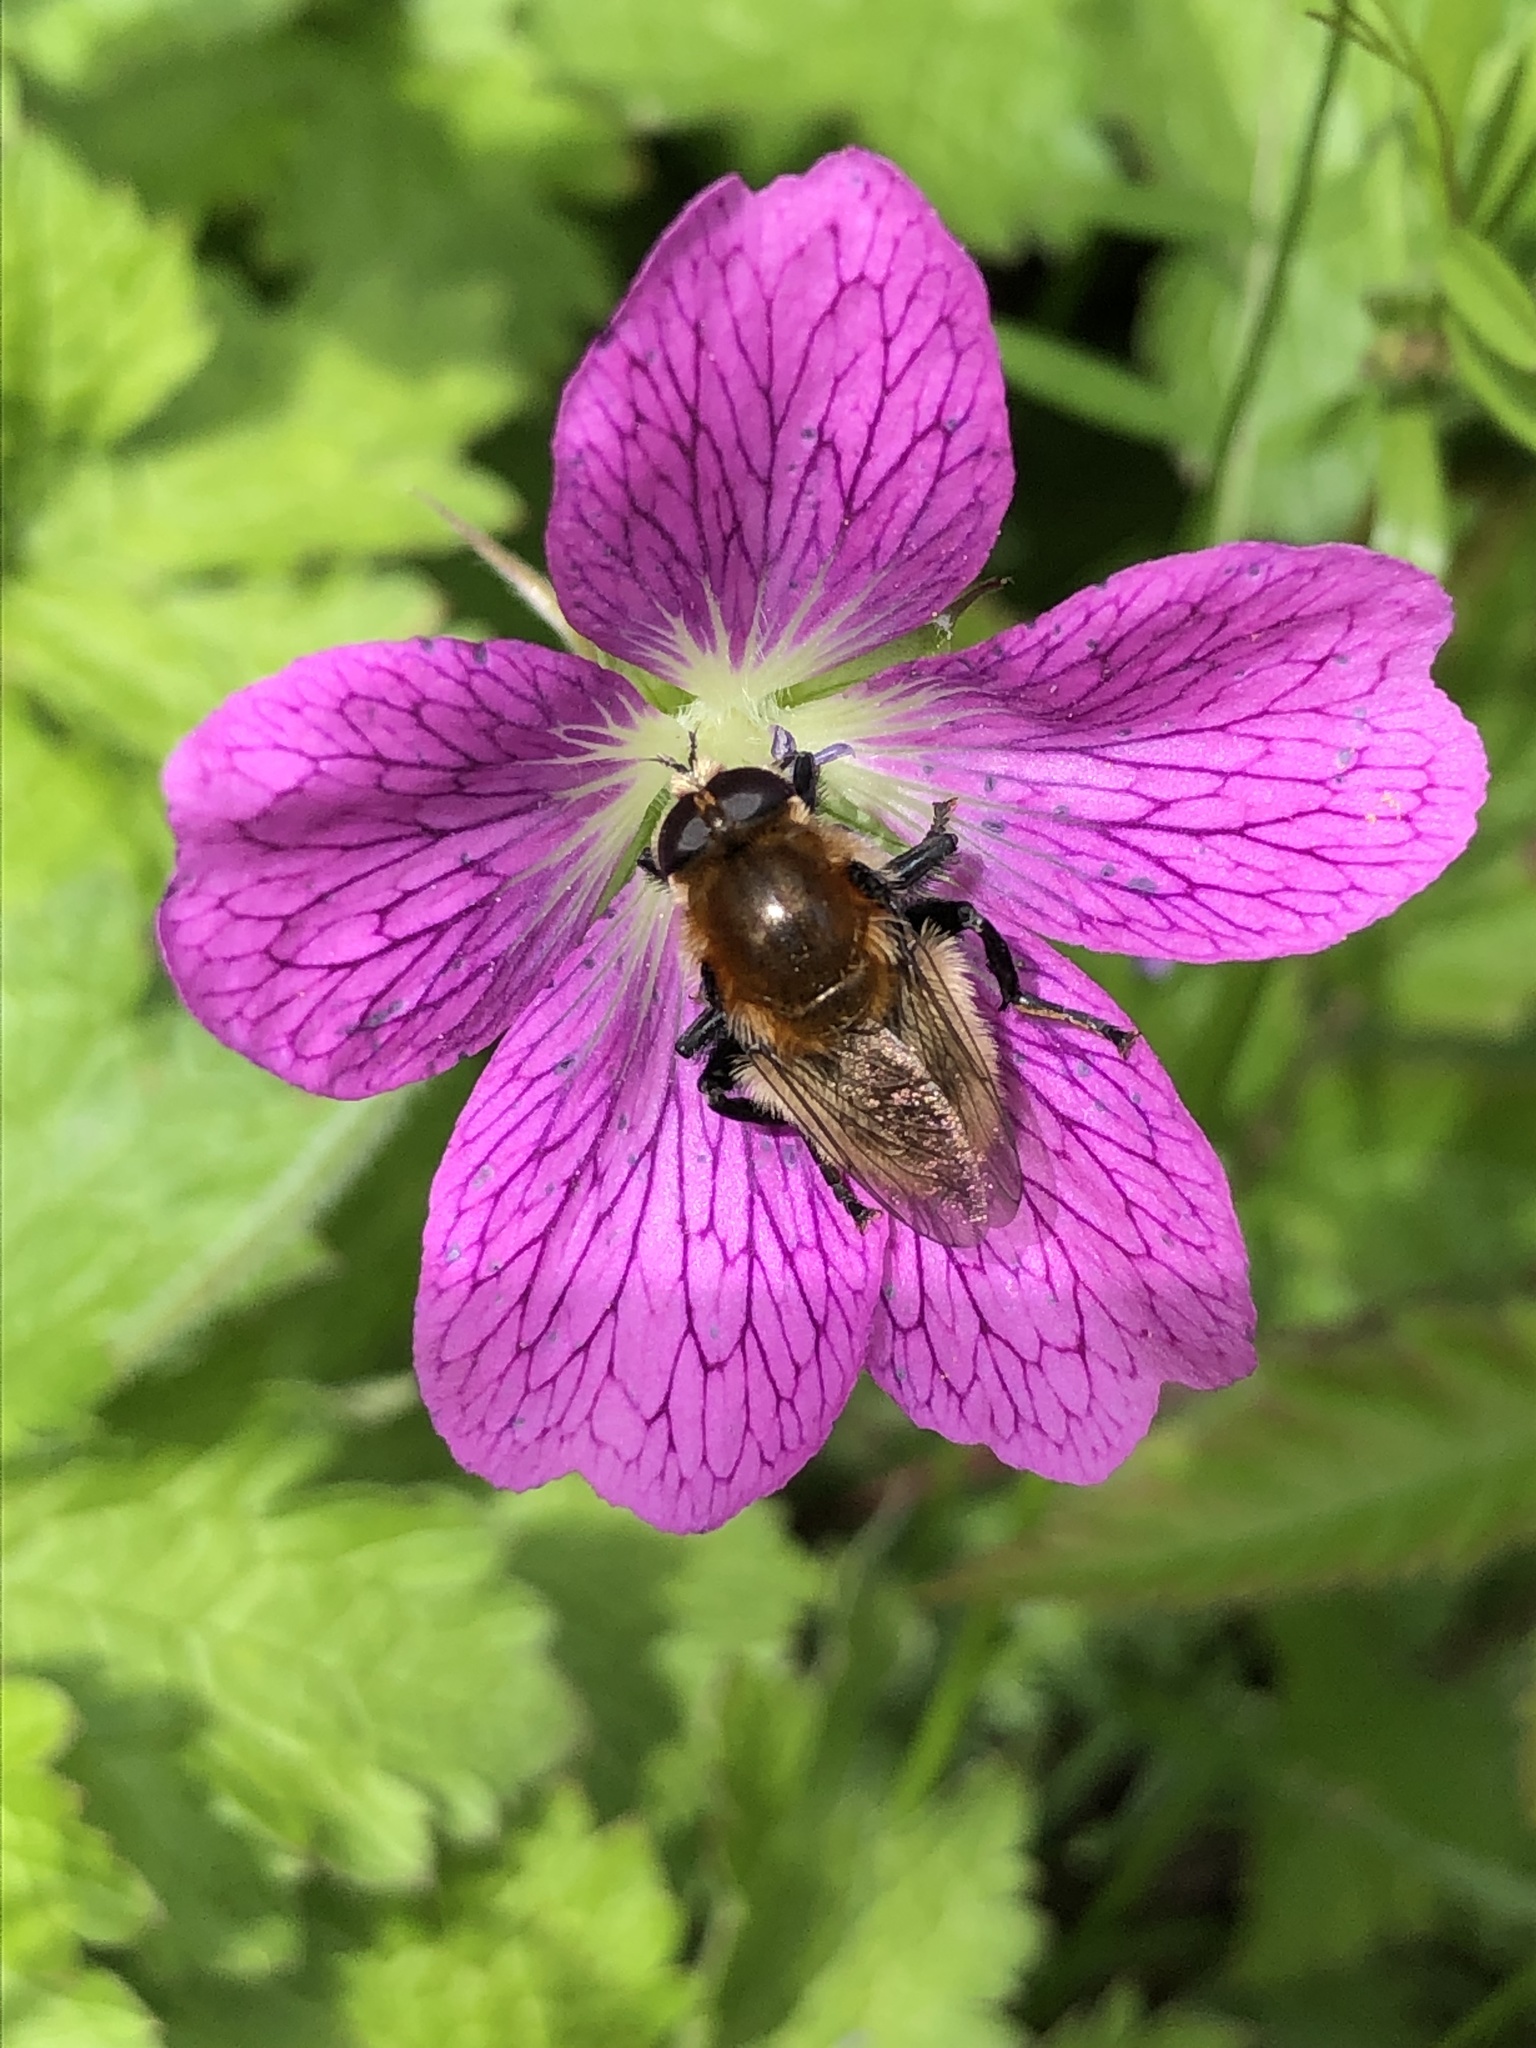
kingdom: Animalia
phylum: Arthropoda
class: Insecta
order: Diptera
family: Syrphidae
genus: Merodon
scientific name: Merodon equestris
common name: Greater bulb-fly
